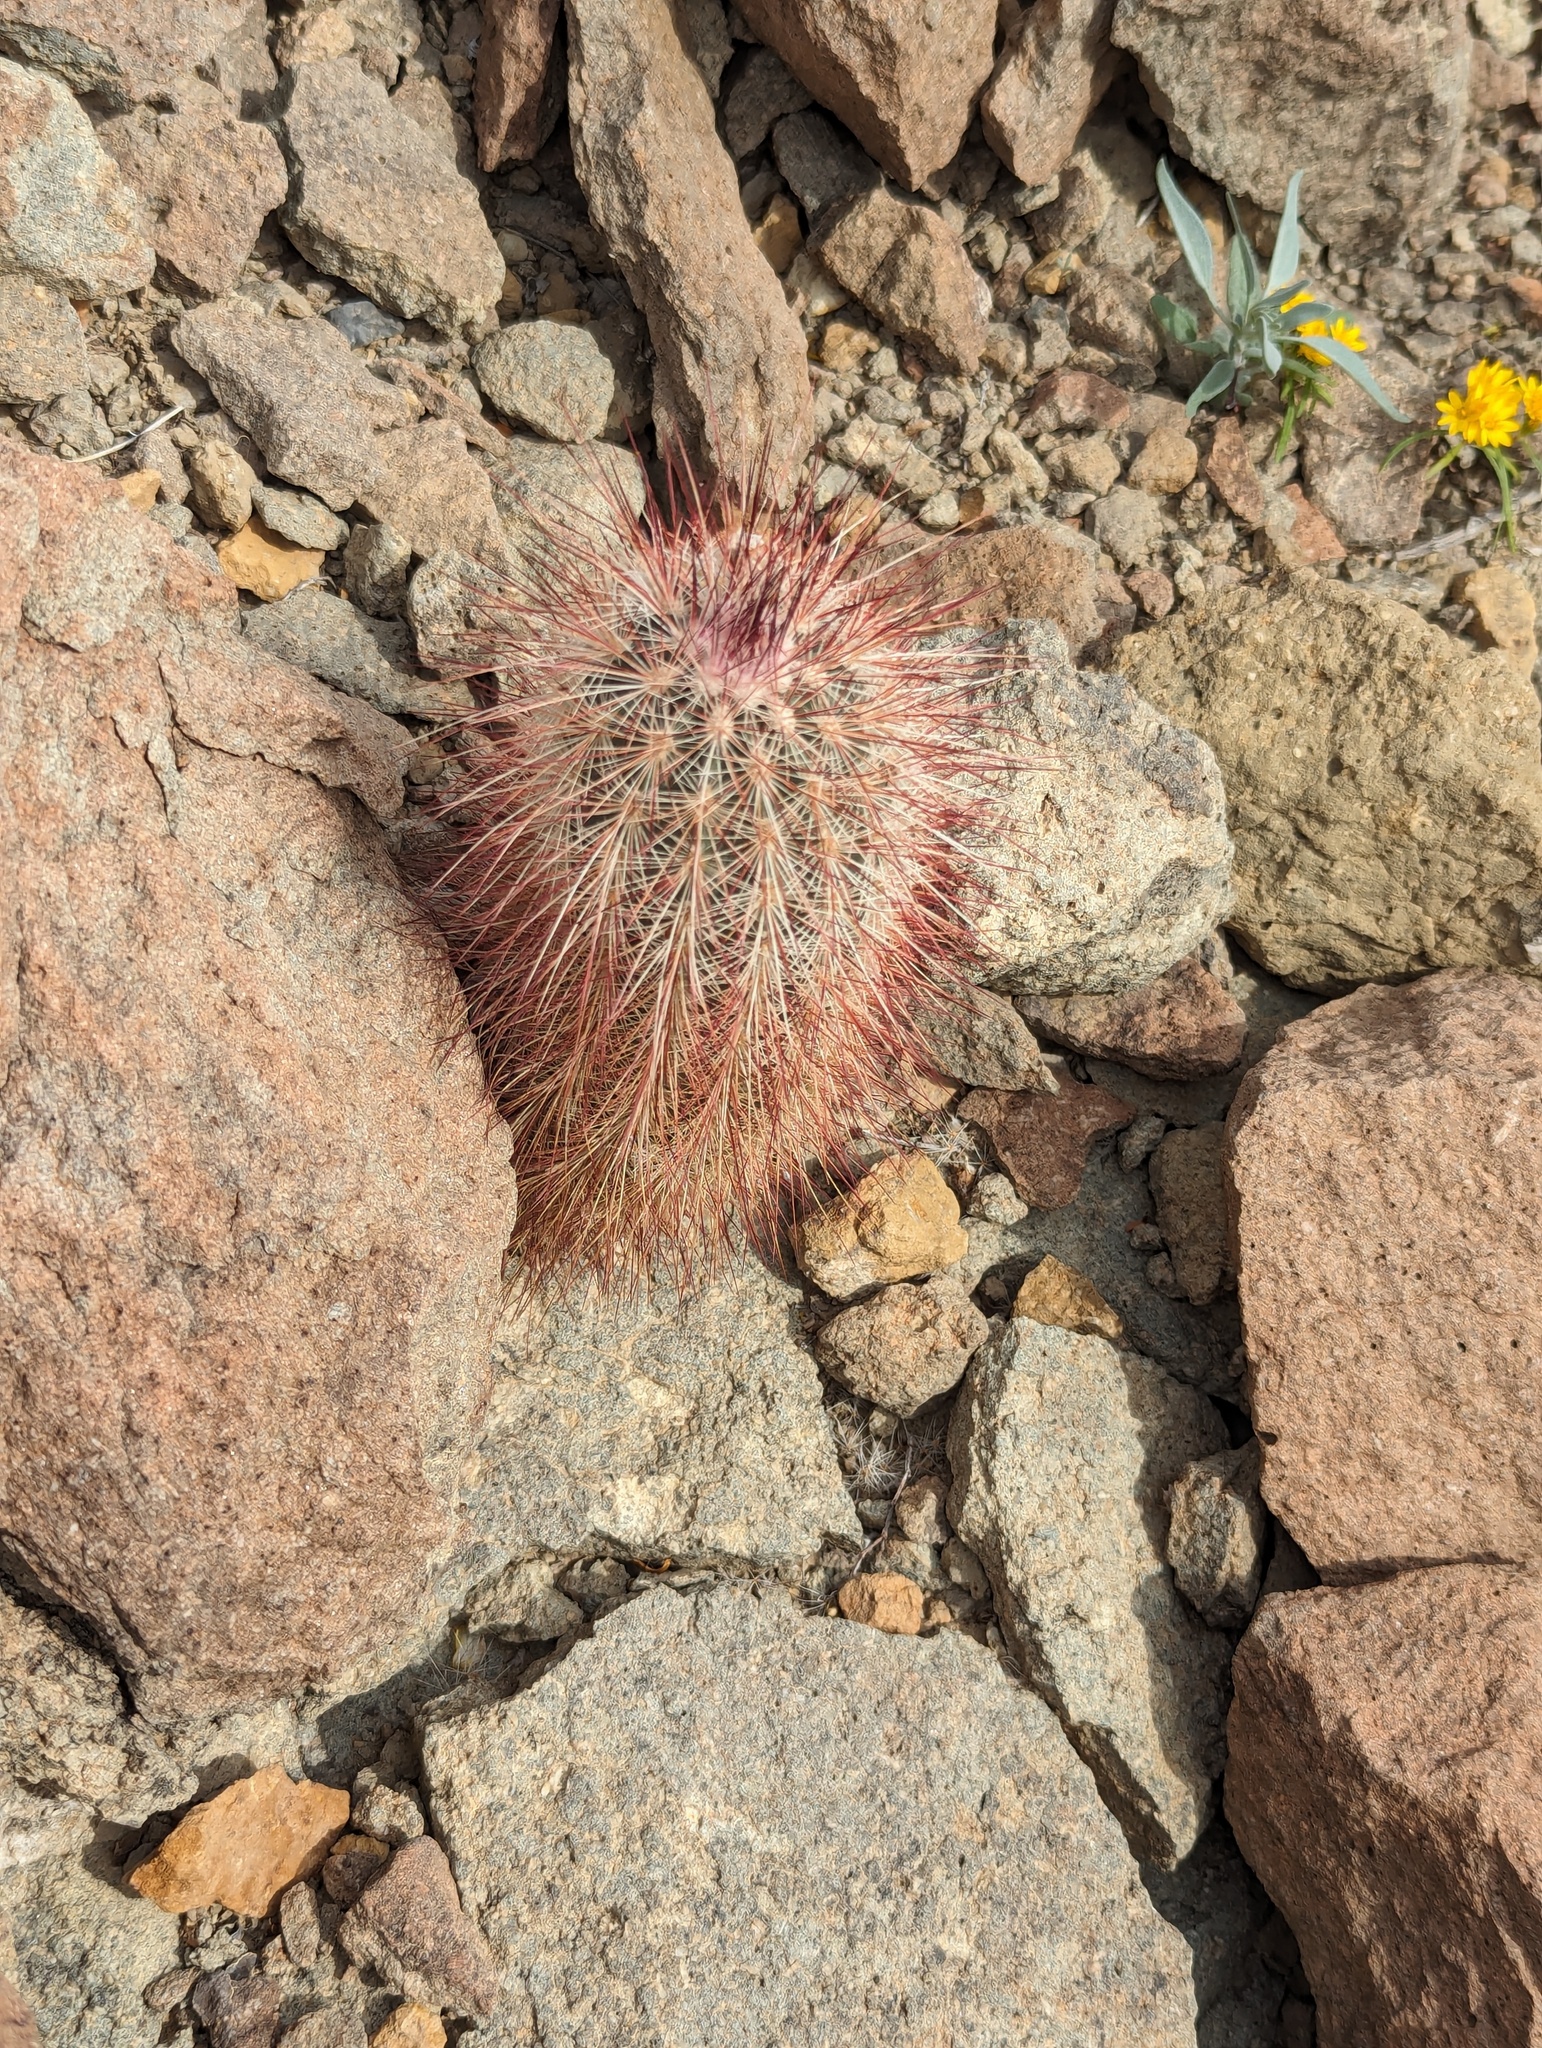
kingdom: Plantae
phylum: Tracheophyta
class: Magnoliopsida
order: Caryophyllales
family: Cactaceae
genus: Echinocereus
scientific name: Echinocereus russanthus
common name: Brownspine hedgehog cactus
